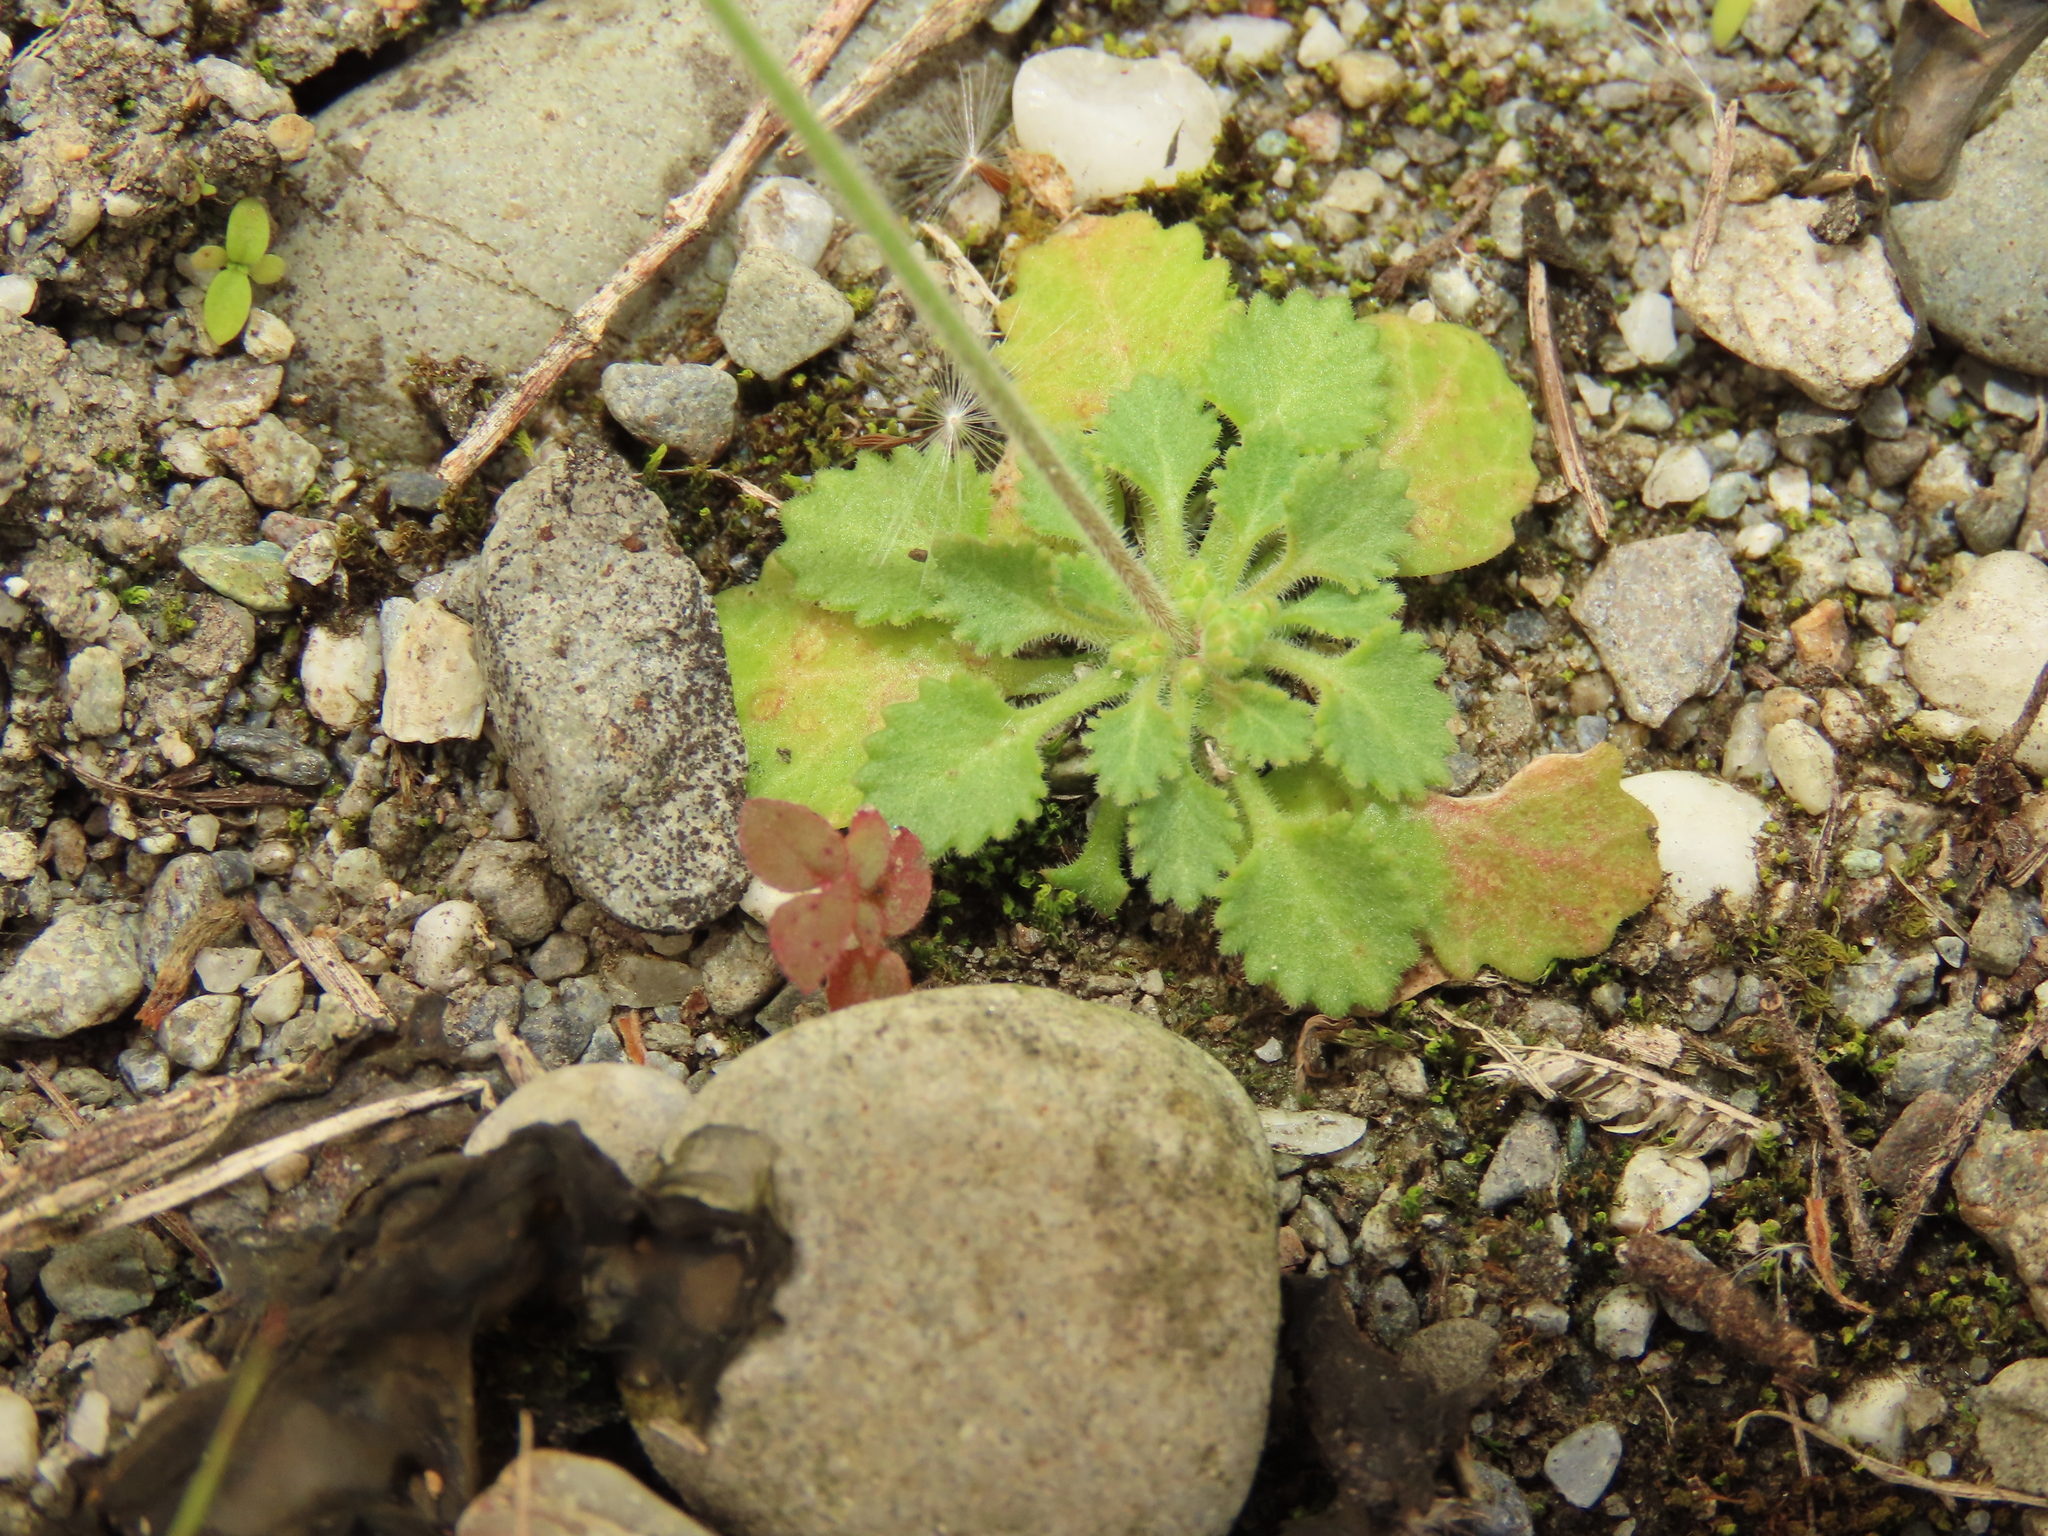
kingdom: Plantae
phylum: Tracheophyta
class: Magnoliopsida
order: Ericales
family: Primulaceae
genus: Androsace
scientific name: Androsace umbellata
